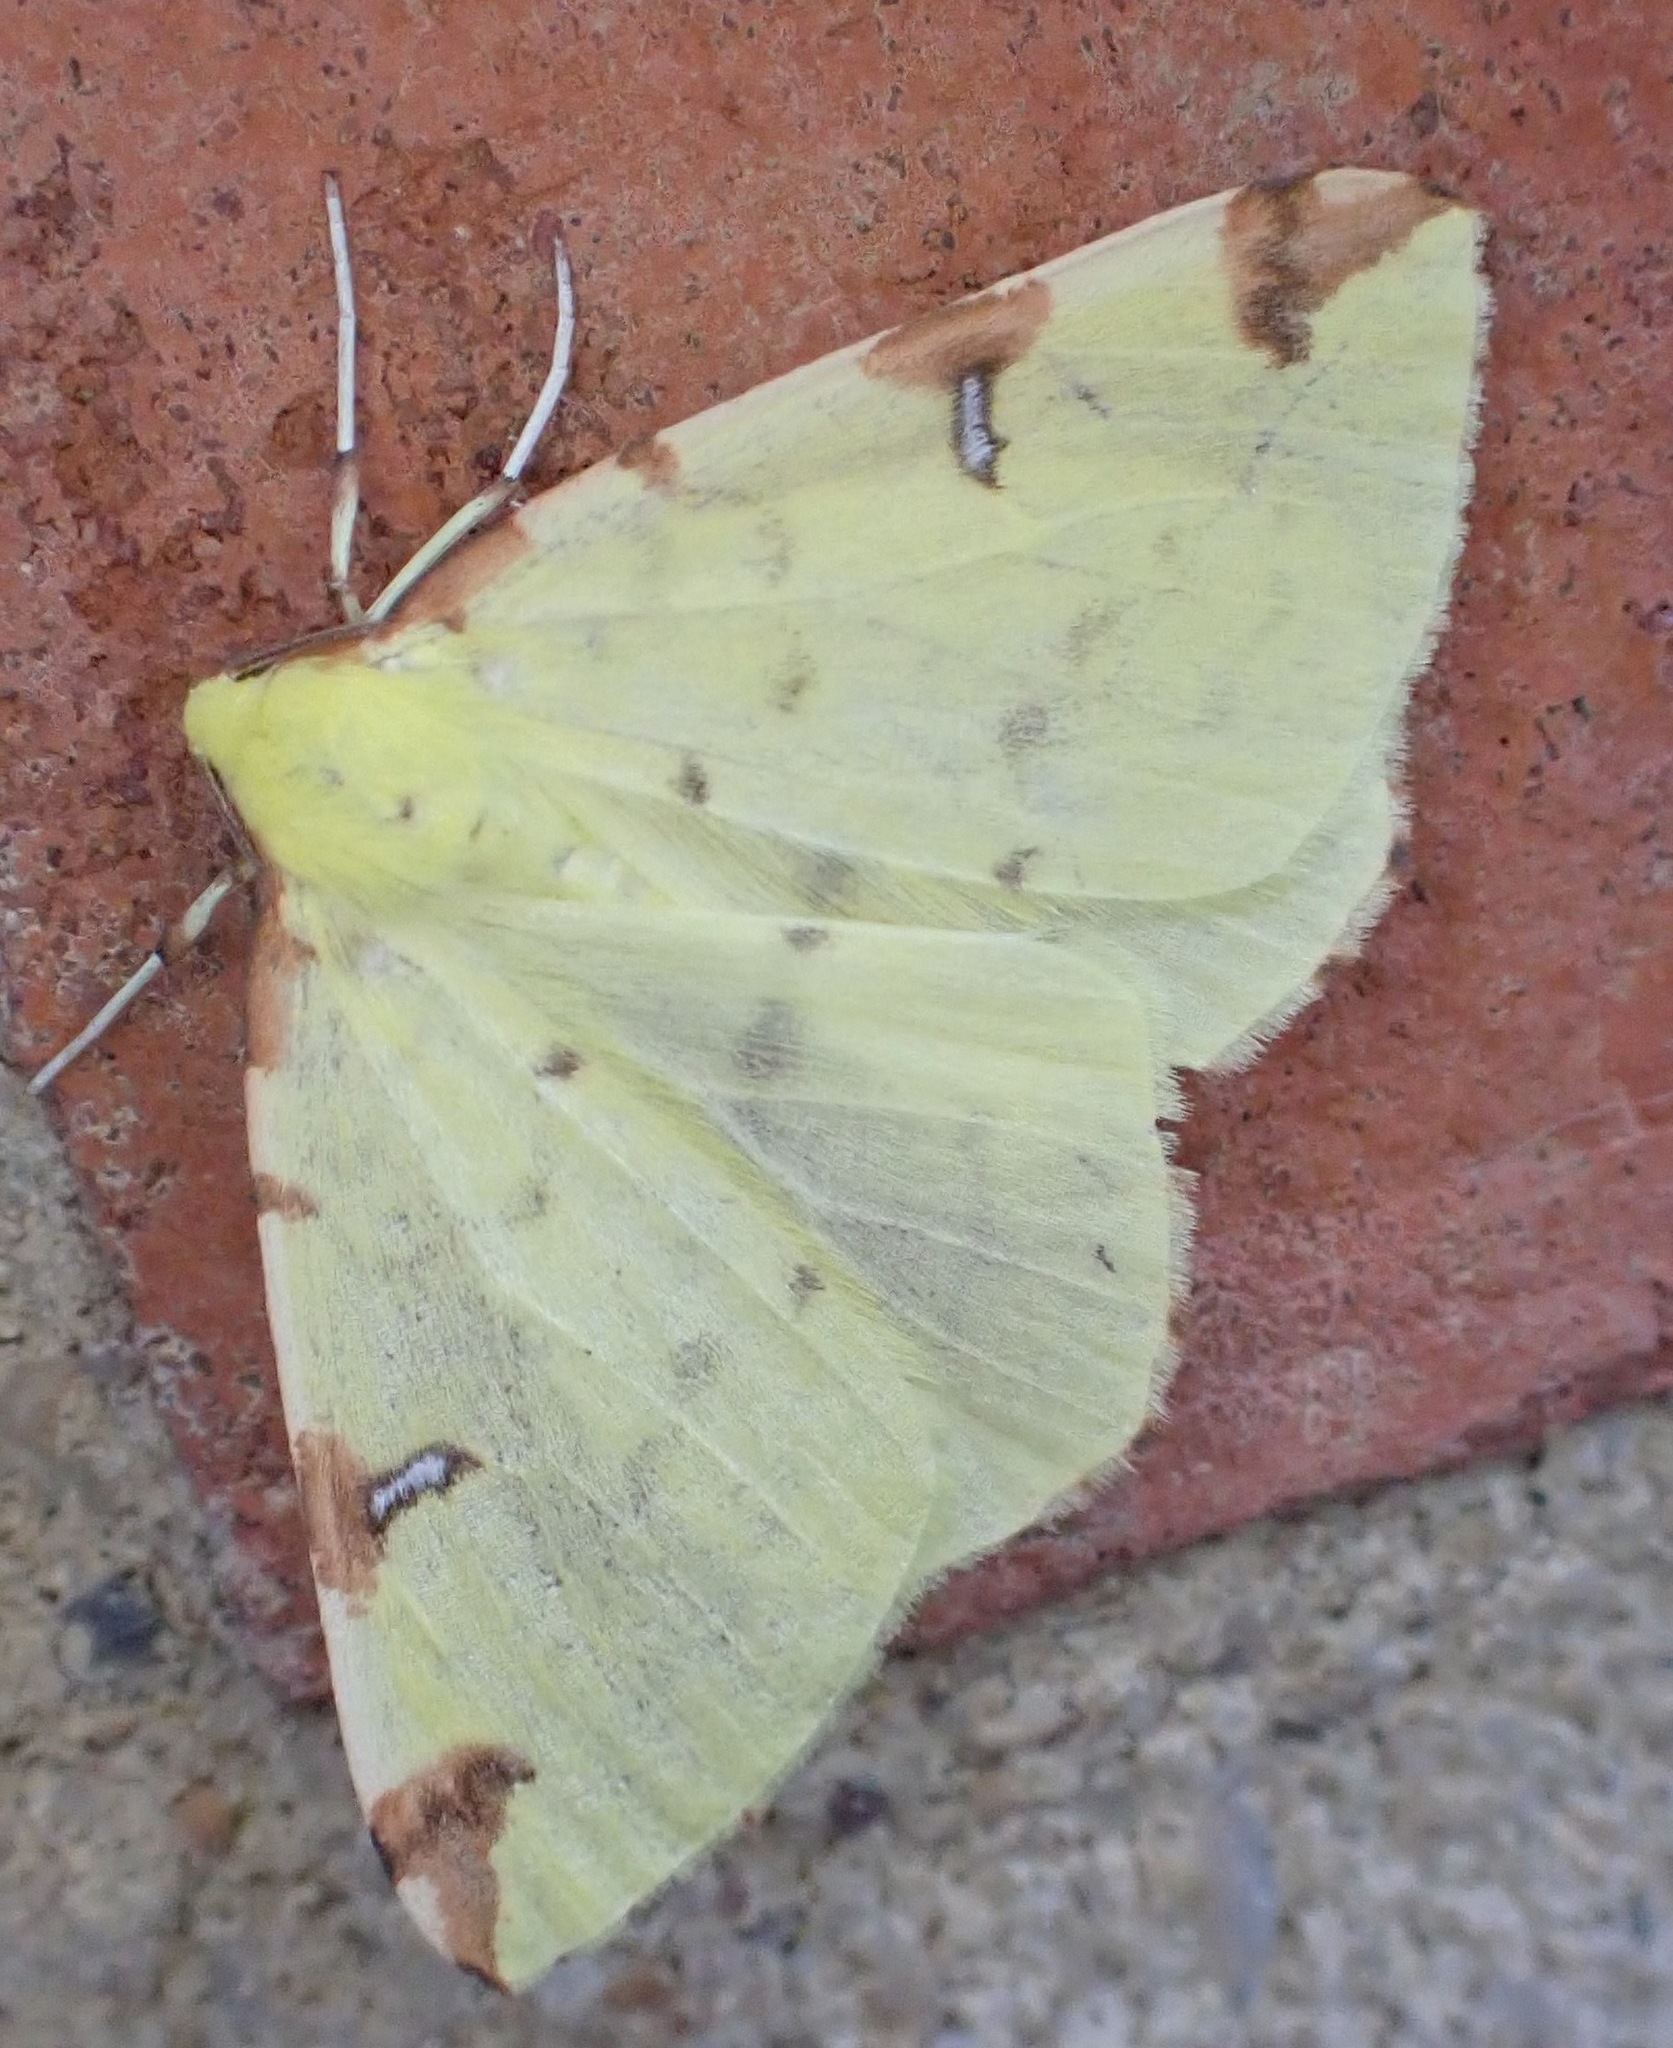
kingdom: Animalia
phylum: Arthropoda
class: Insecta
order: Lepidoptera
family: Geometridae
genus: Opisthograptis
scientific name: Opisthograptis luteolata
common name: Brimstone moth
